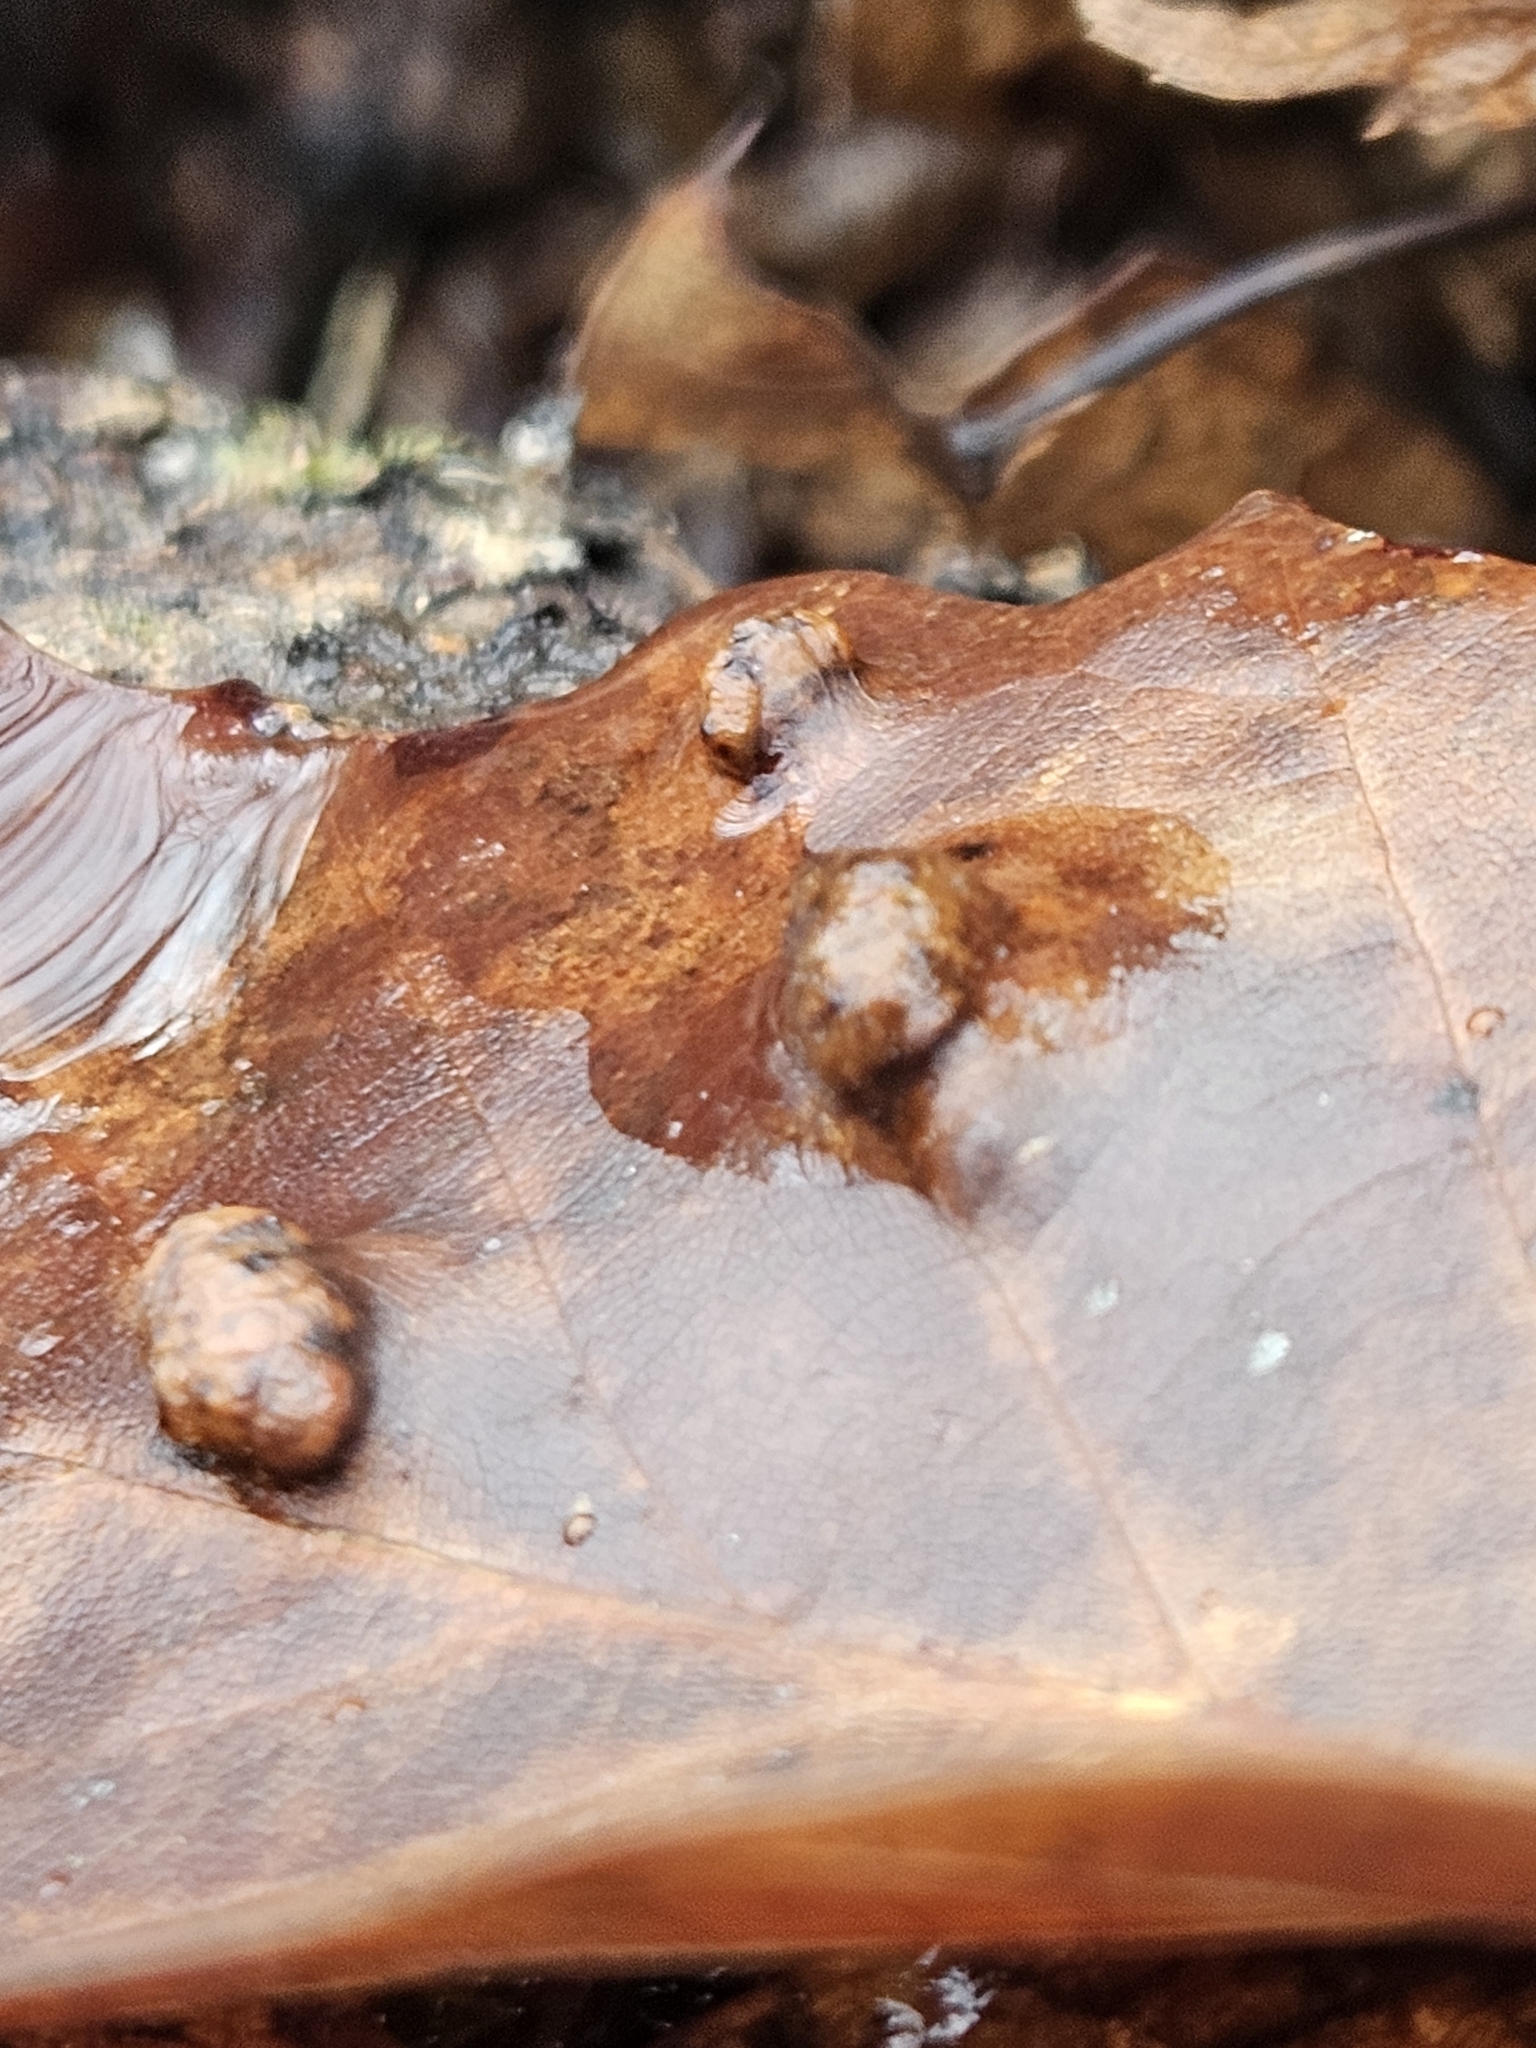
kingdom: Animalia
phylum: Arthropoda
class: Insecta
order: Diptera
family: Cecidomyiidae
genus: Polystepha
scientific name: Polystepha pilulae
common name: Oak leaf gall midge
